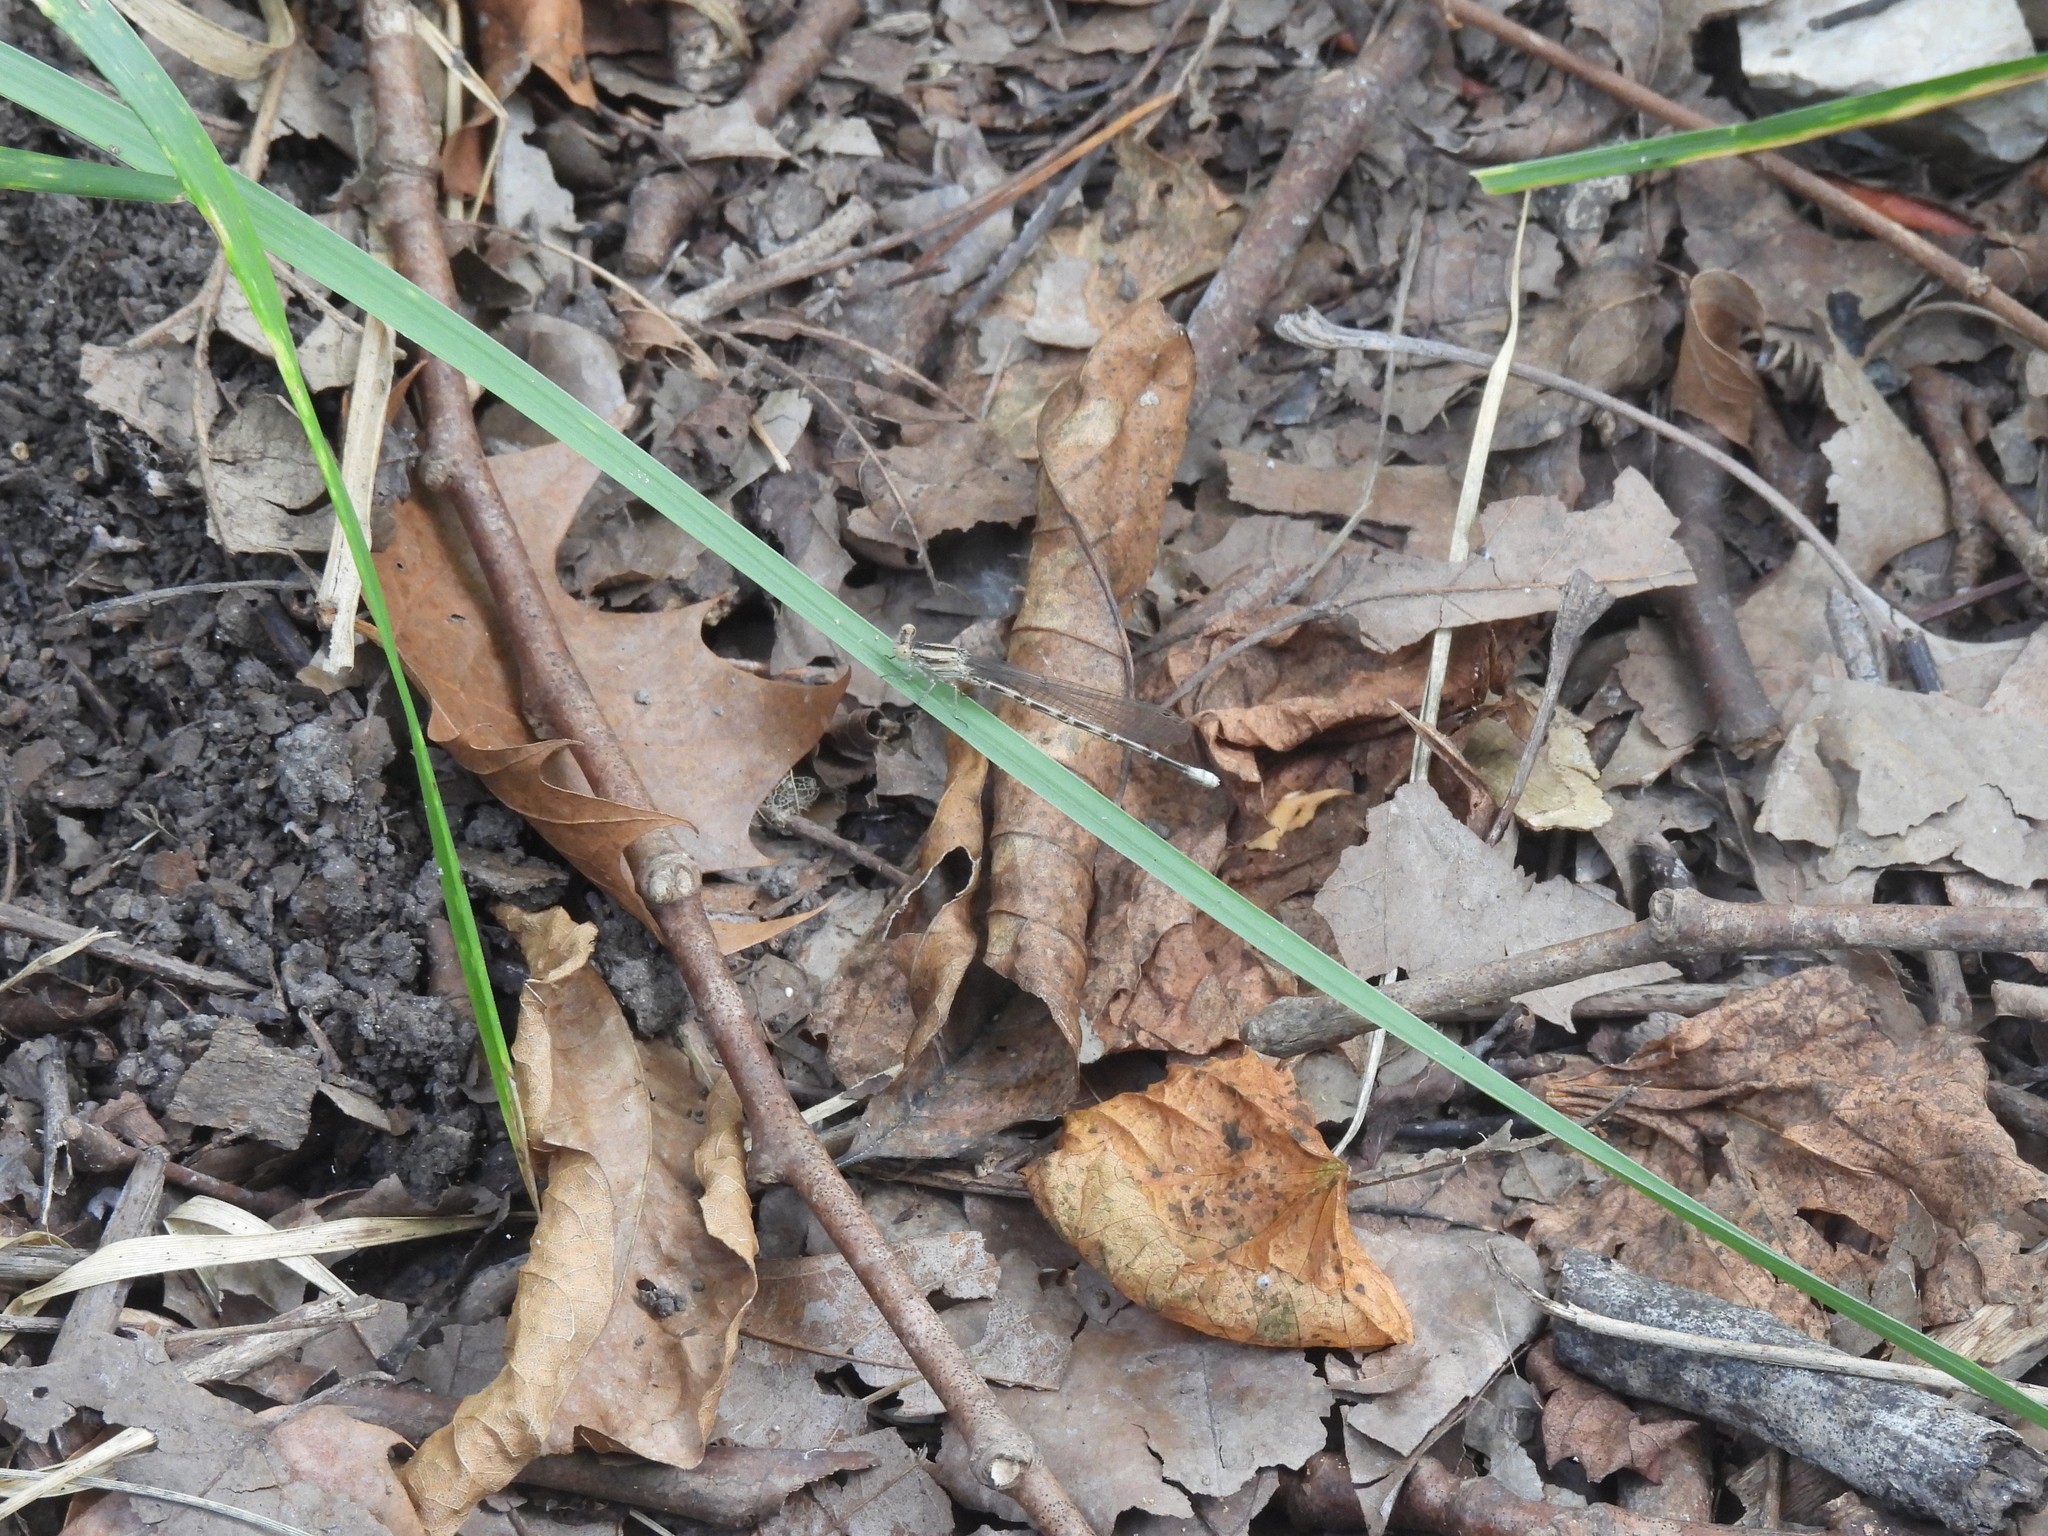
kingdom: Animalia
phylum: Arthropoda
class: Insecta
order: Odonata
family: Coenagrionidae
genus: Argia
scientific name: Argia immunda
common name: Kiowa dancer
